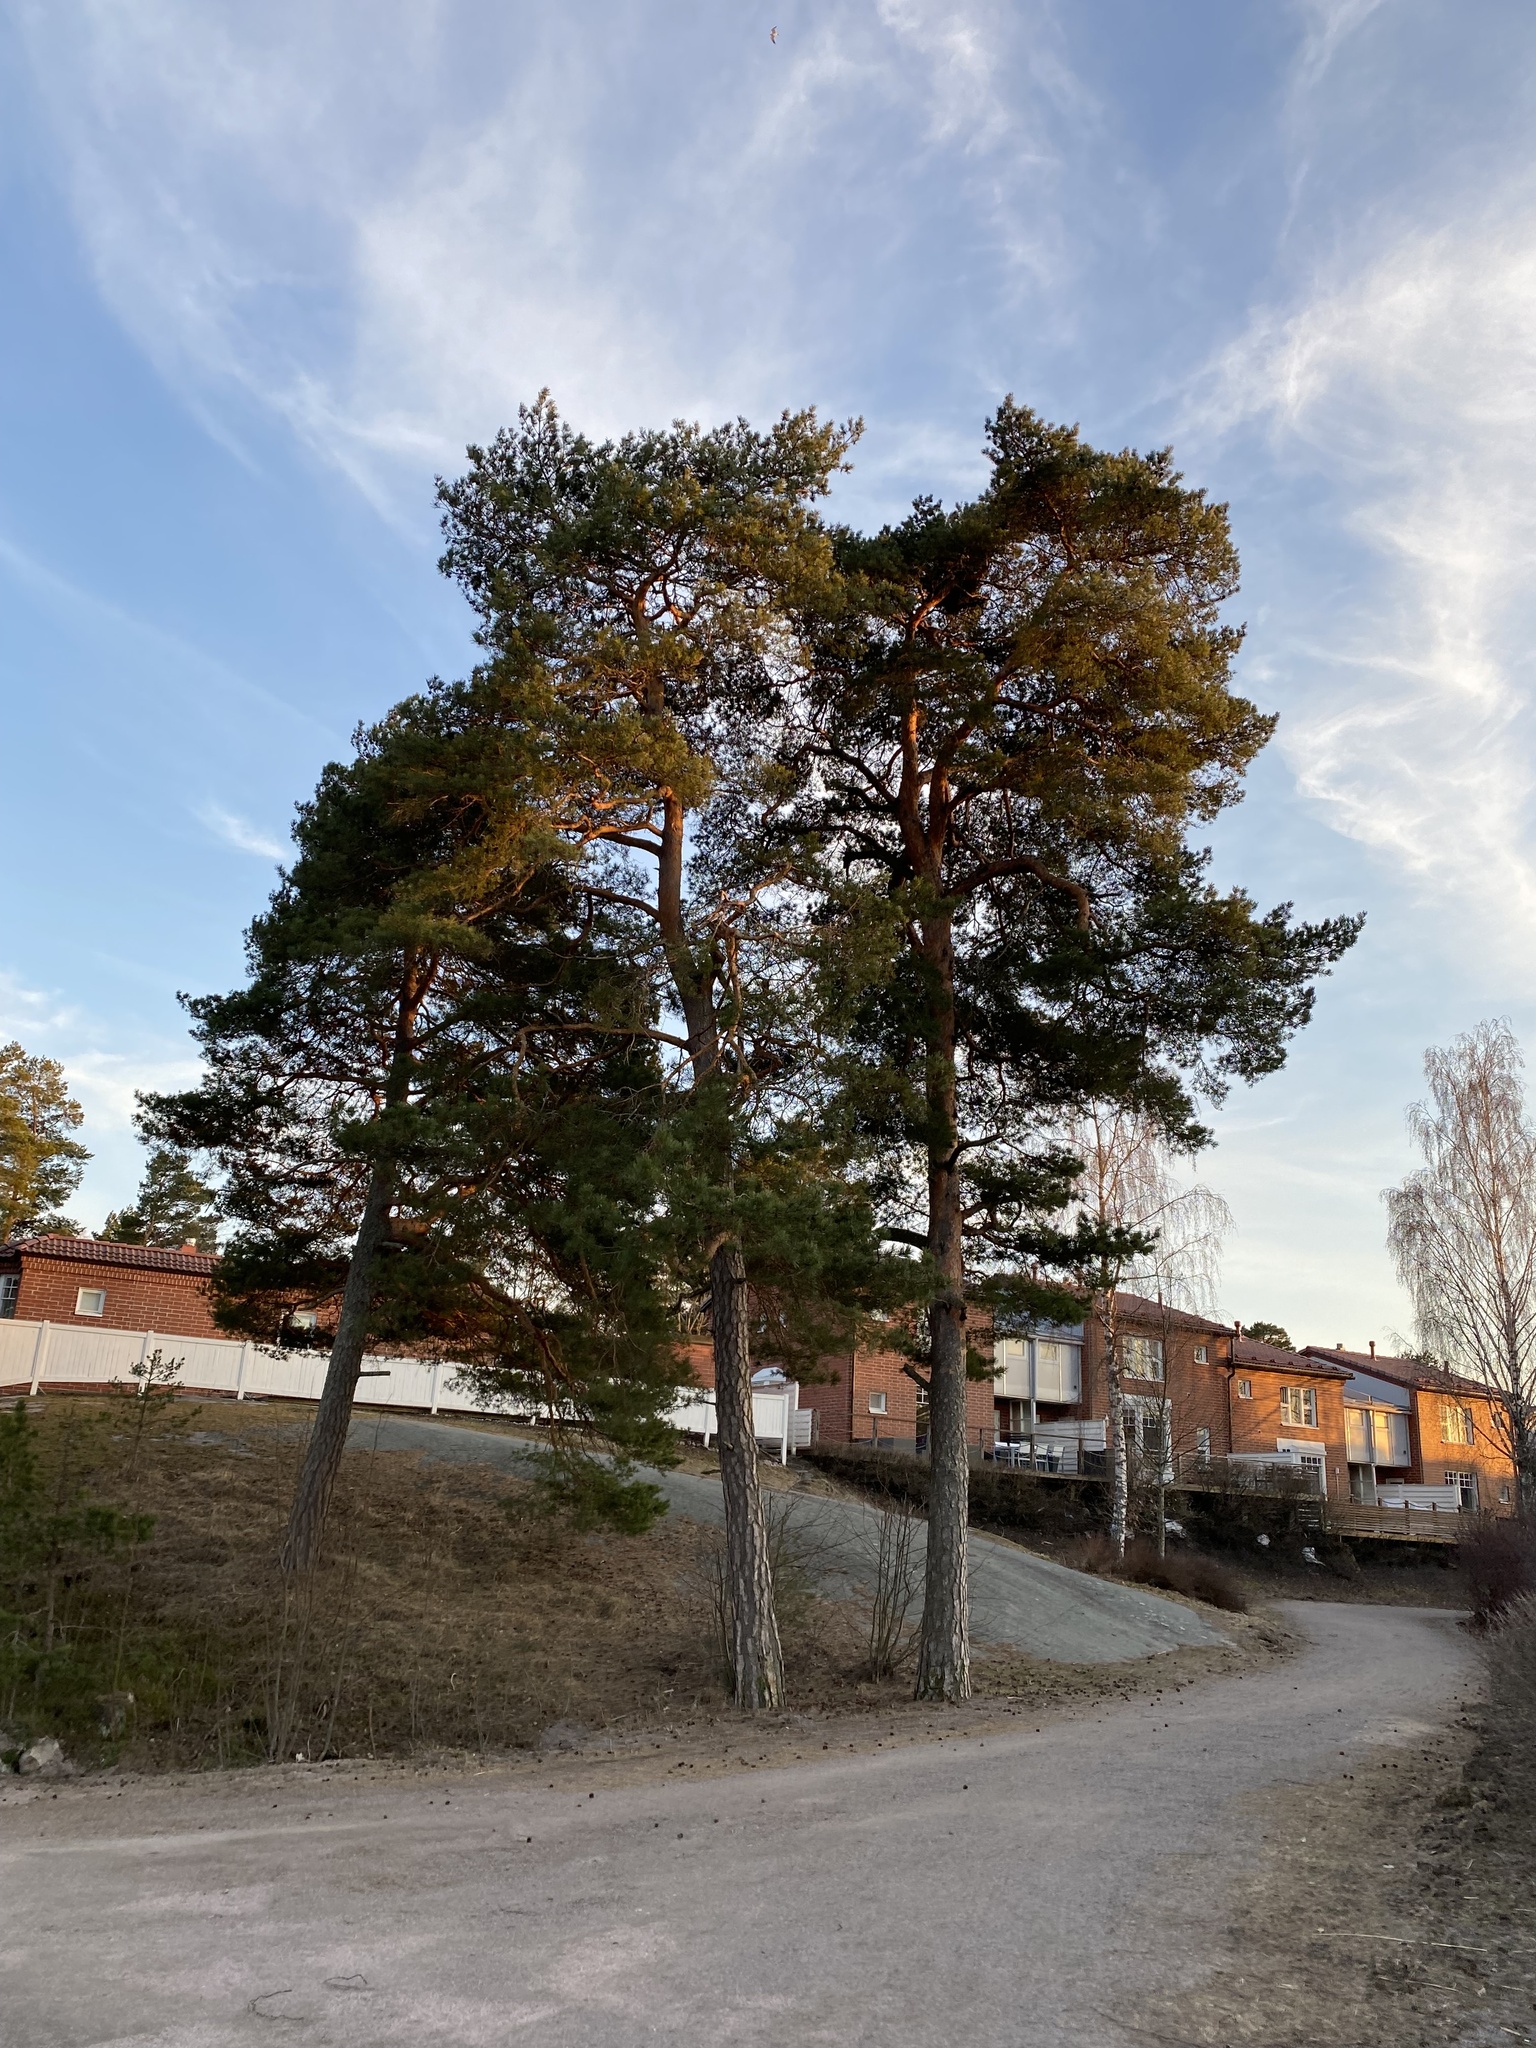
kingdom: Plantae
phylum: Tracheophyta
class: Pinopsida
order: Pinales
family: Pinaceae
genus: Pinus
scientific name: Pinus sylvestris
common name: Scots pine
